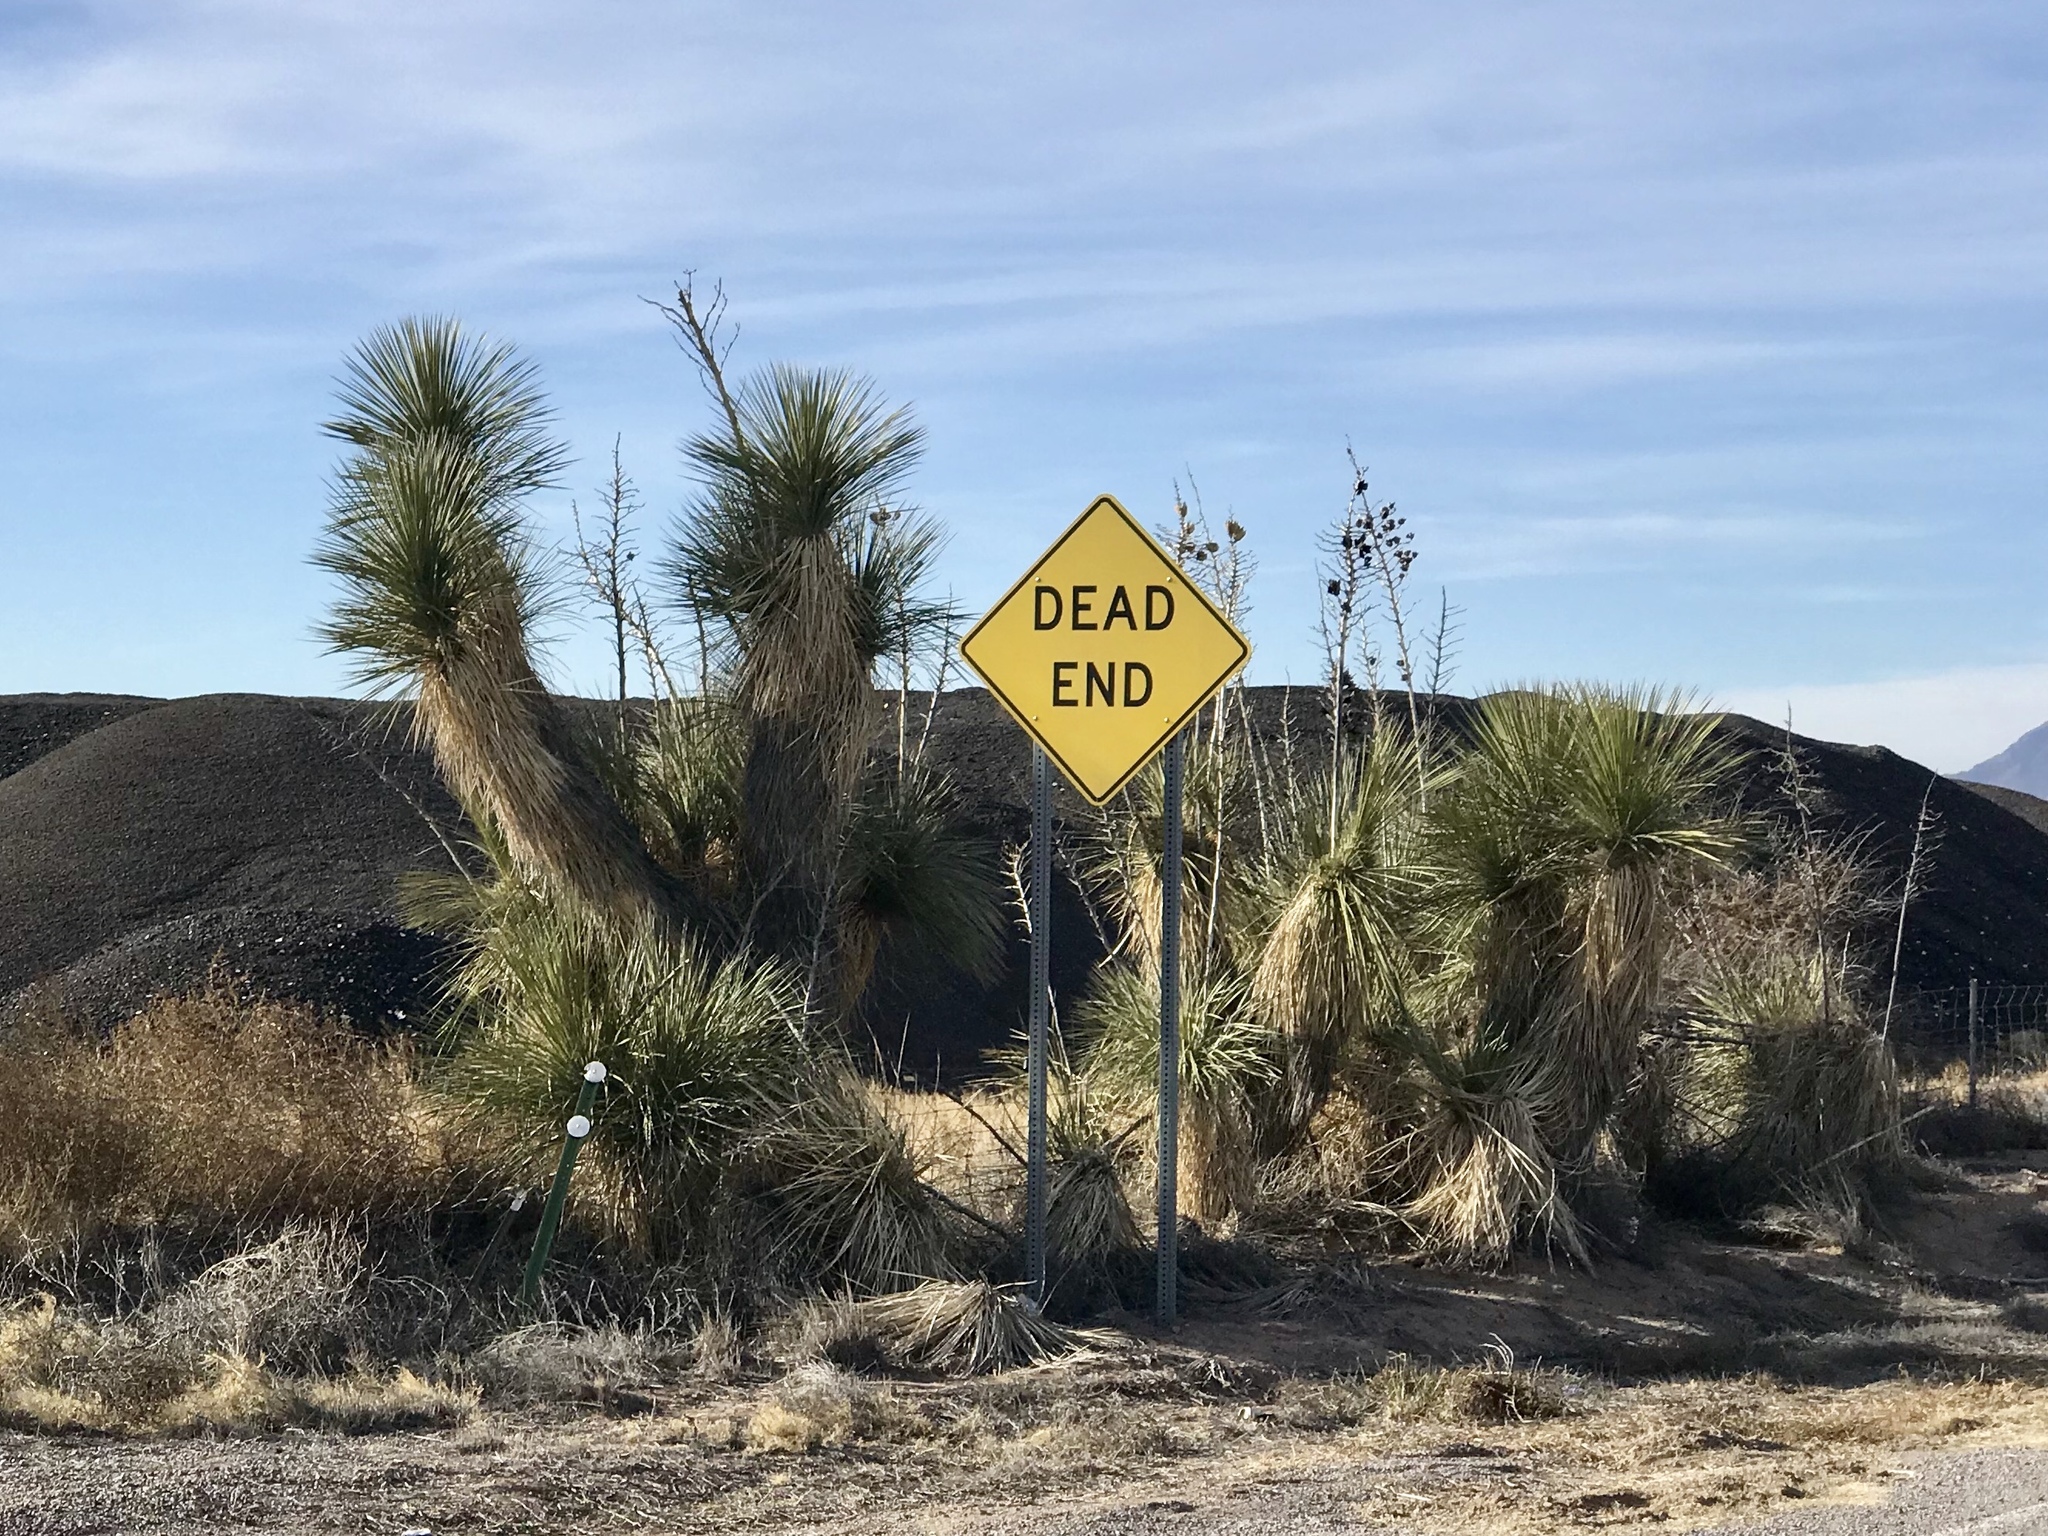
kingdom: Plantae
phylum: Tracheophyta
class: Liliopsida
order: Asparagales
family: Asparagaceae
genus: Yucca
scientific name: Yucca elata
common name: Palmella
